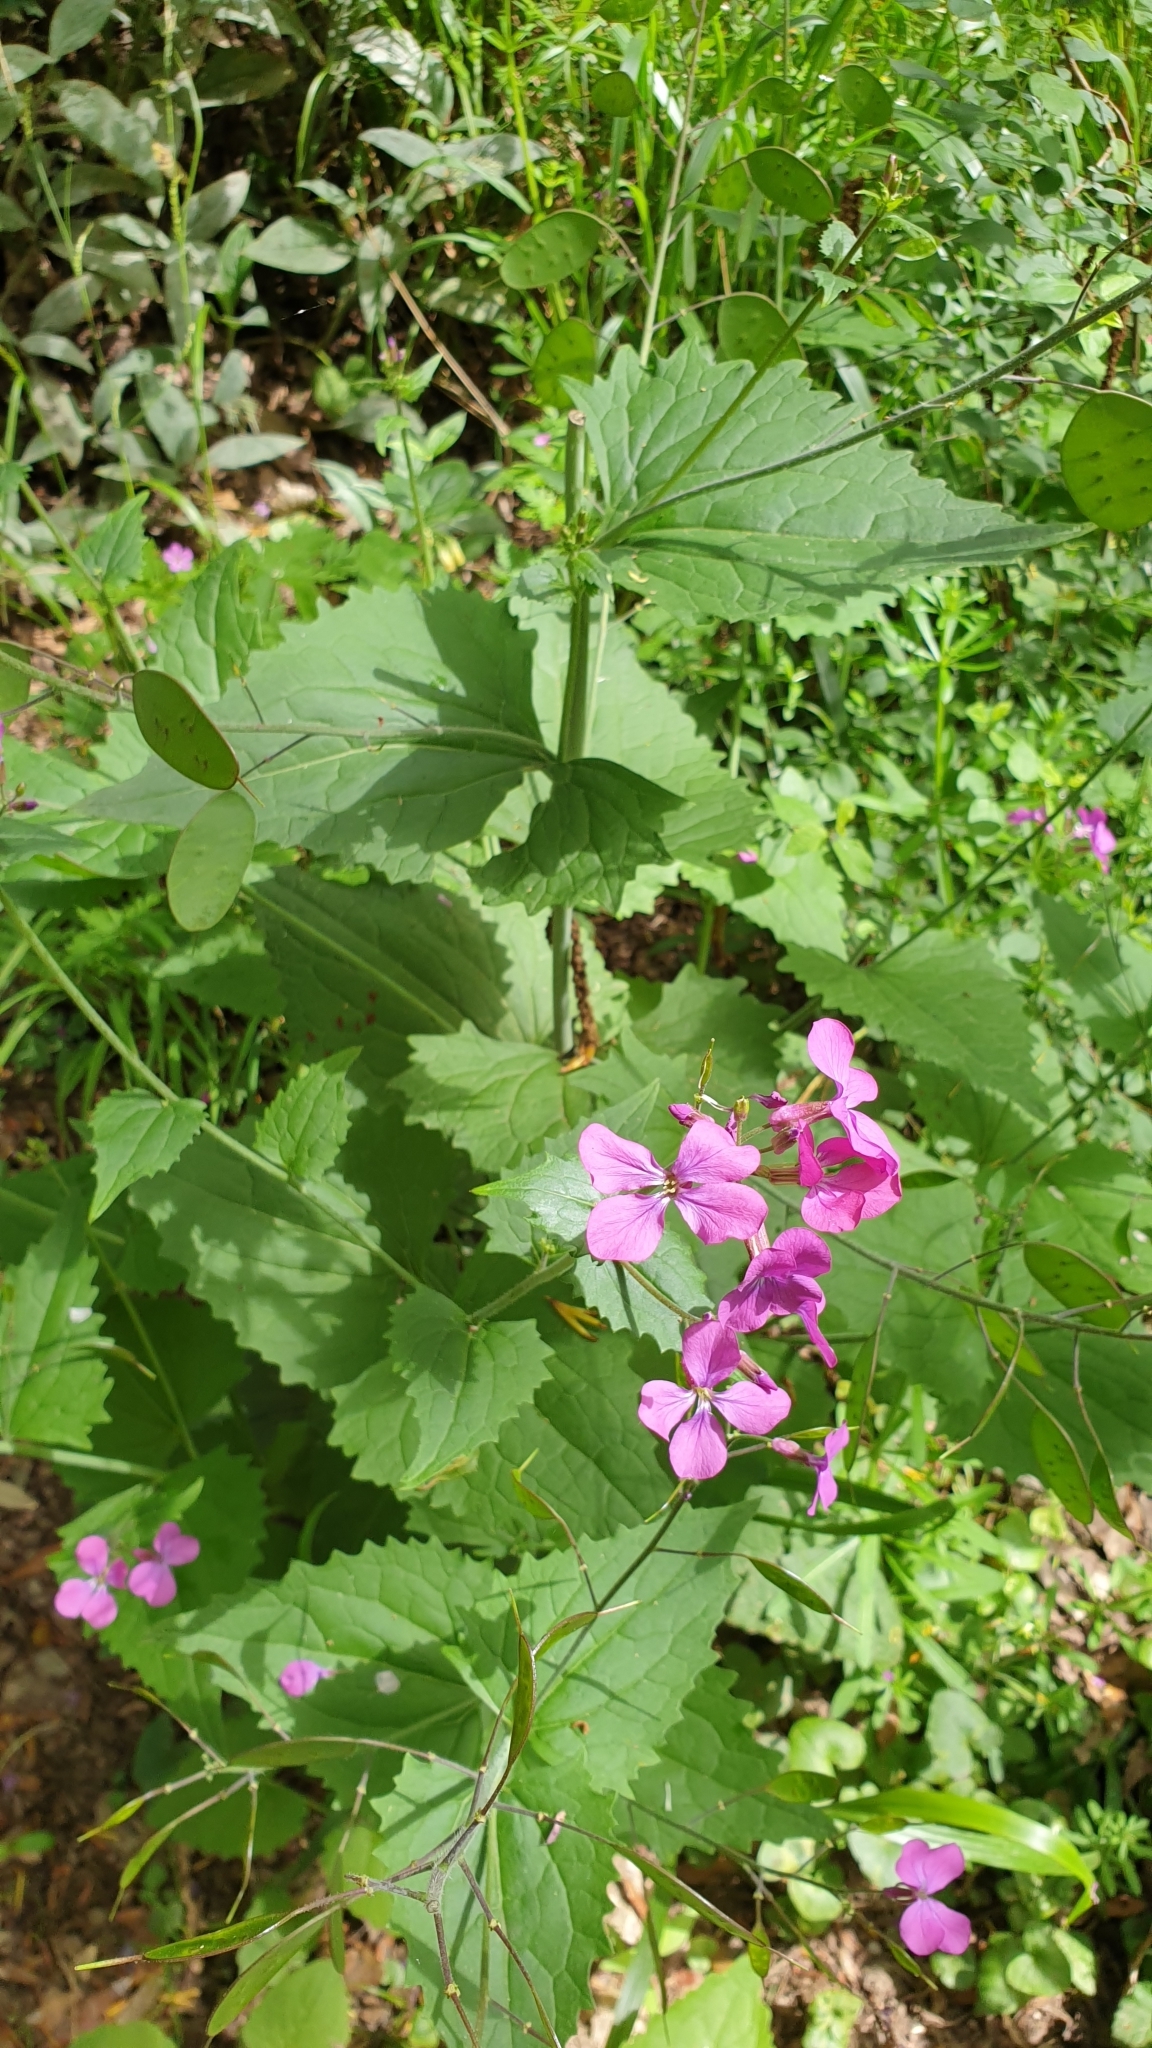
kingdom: Plantae
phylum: Tracheophyta
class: Magnoliopsida
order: Brassicales
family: Brassicaceae
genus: Lunaria
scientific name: Lunaria annua
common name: Honesty
